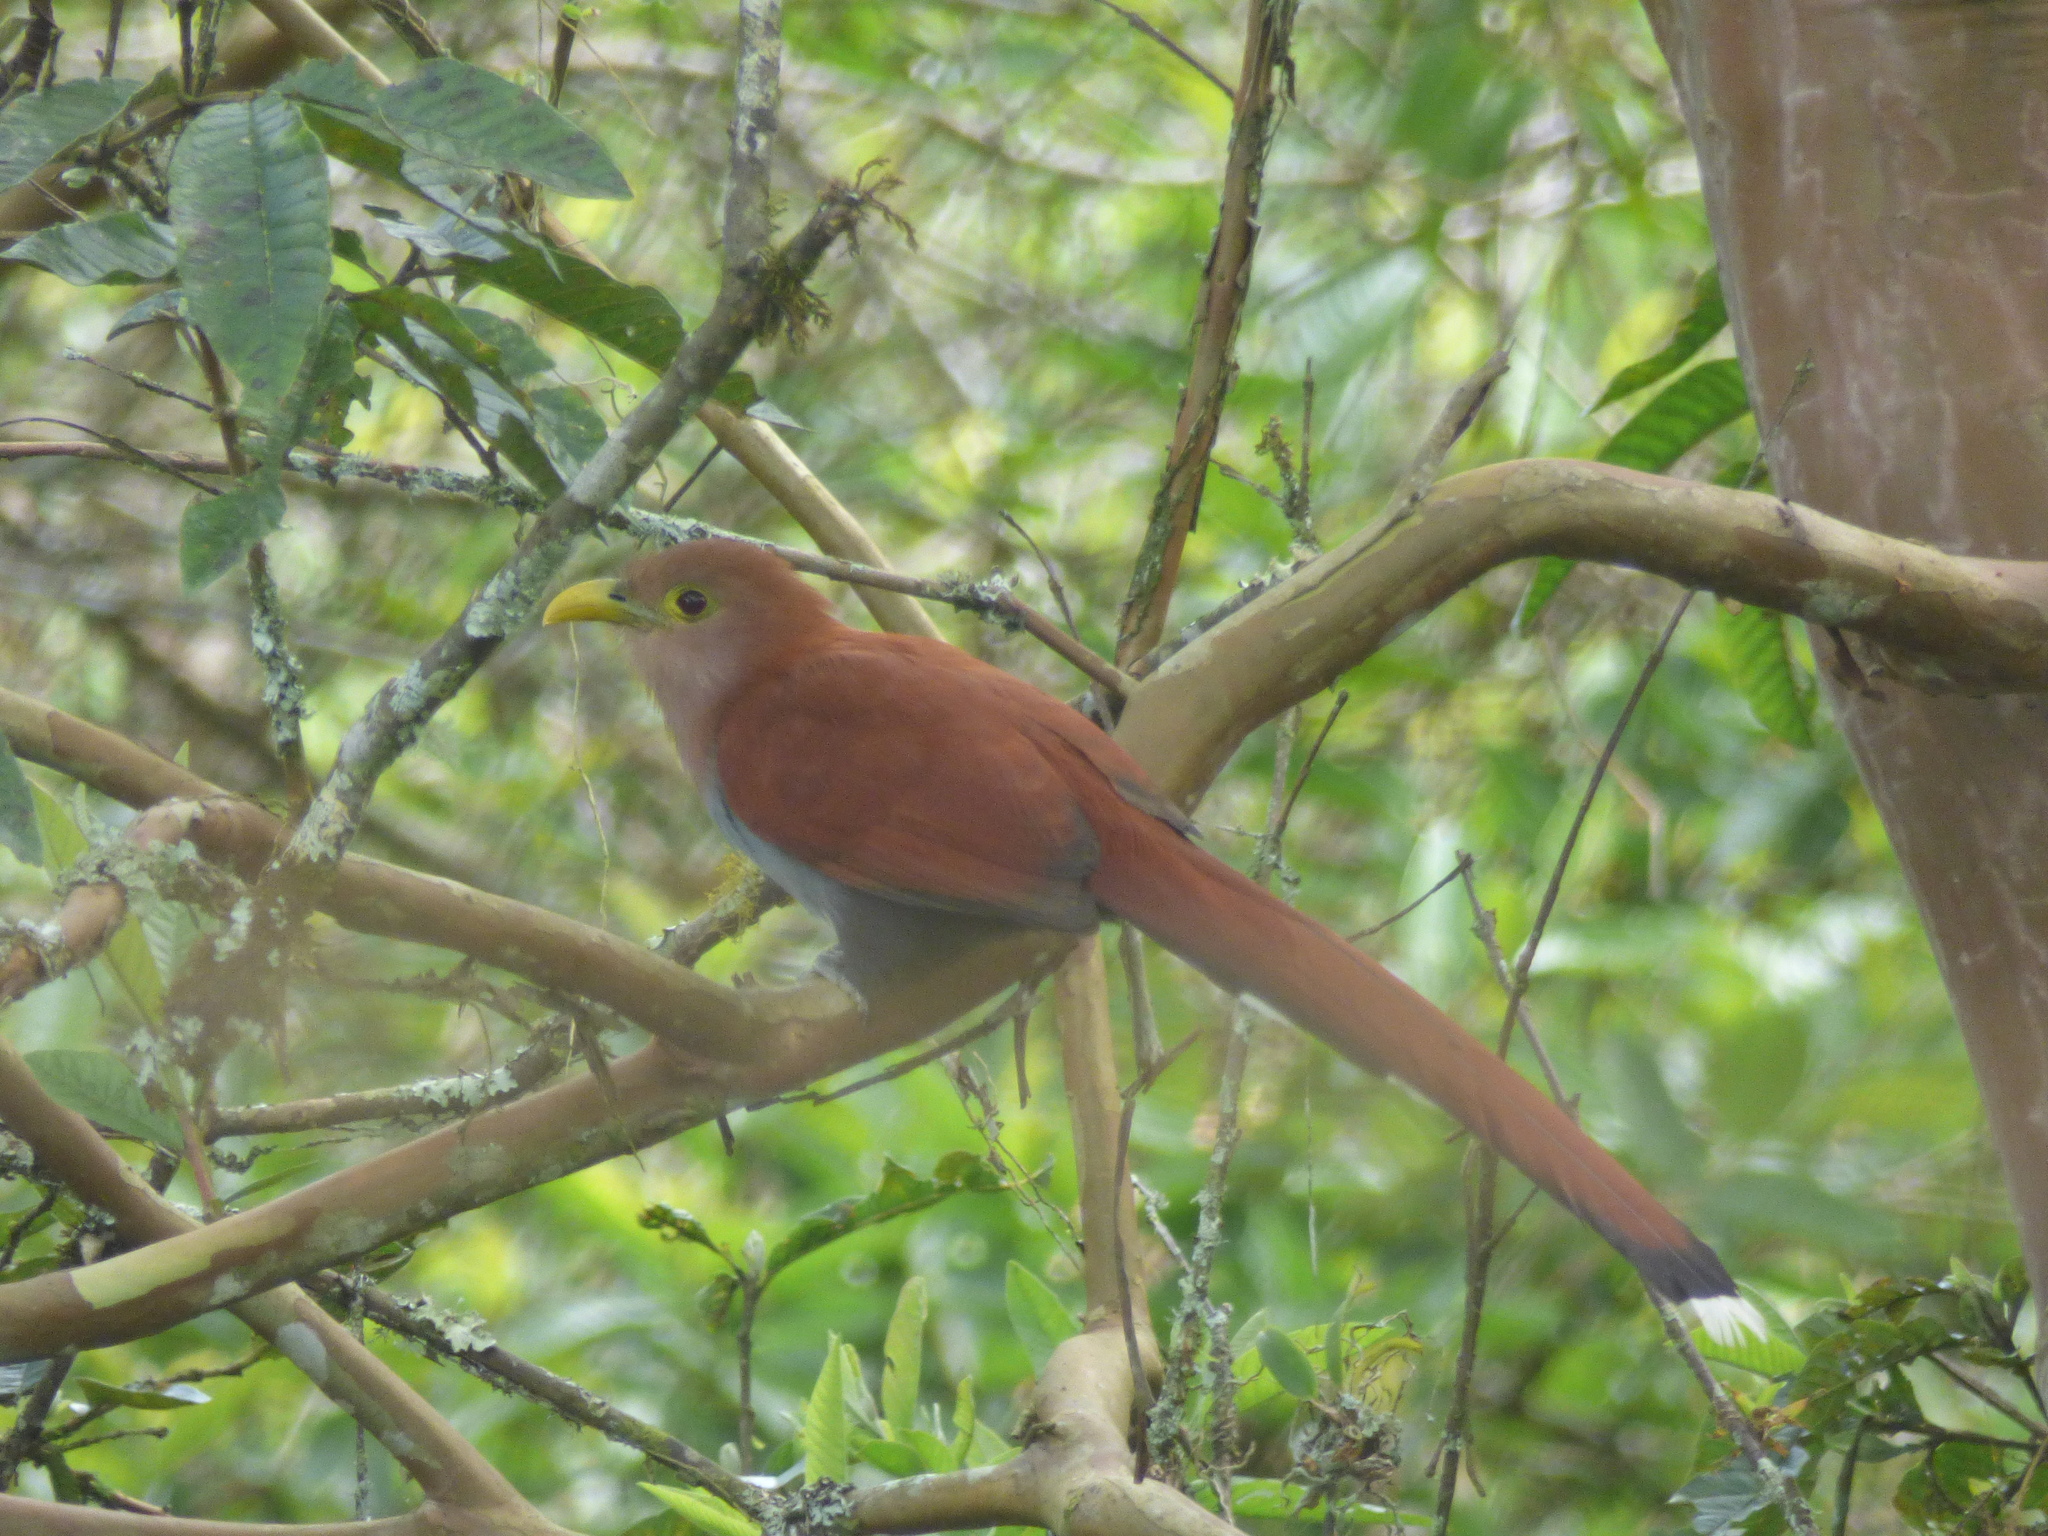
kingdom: Animalia
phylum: Chordata
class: Aves
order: Cuculiformes
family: Cuculidae
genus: Piaya
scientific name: Piaya cayana
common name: Squirrel cuckoo
